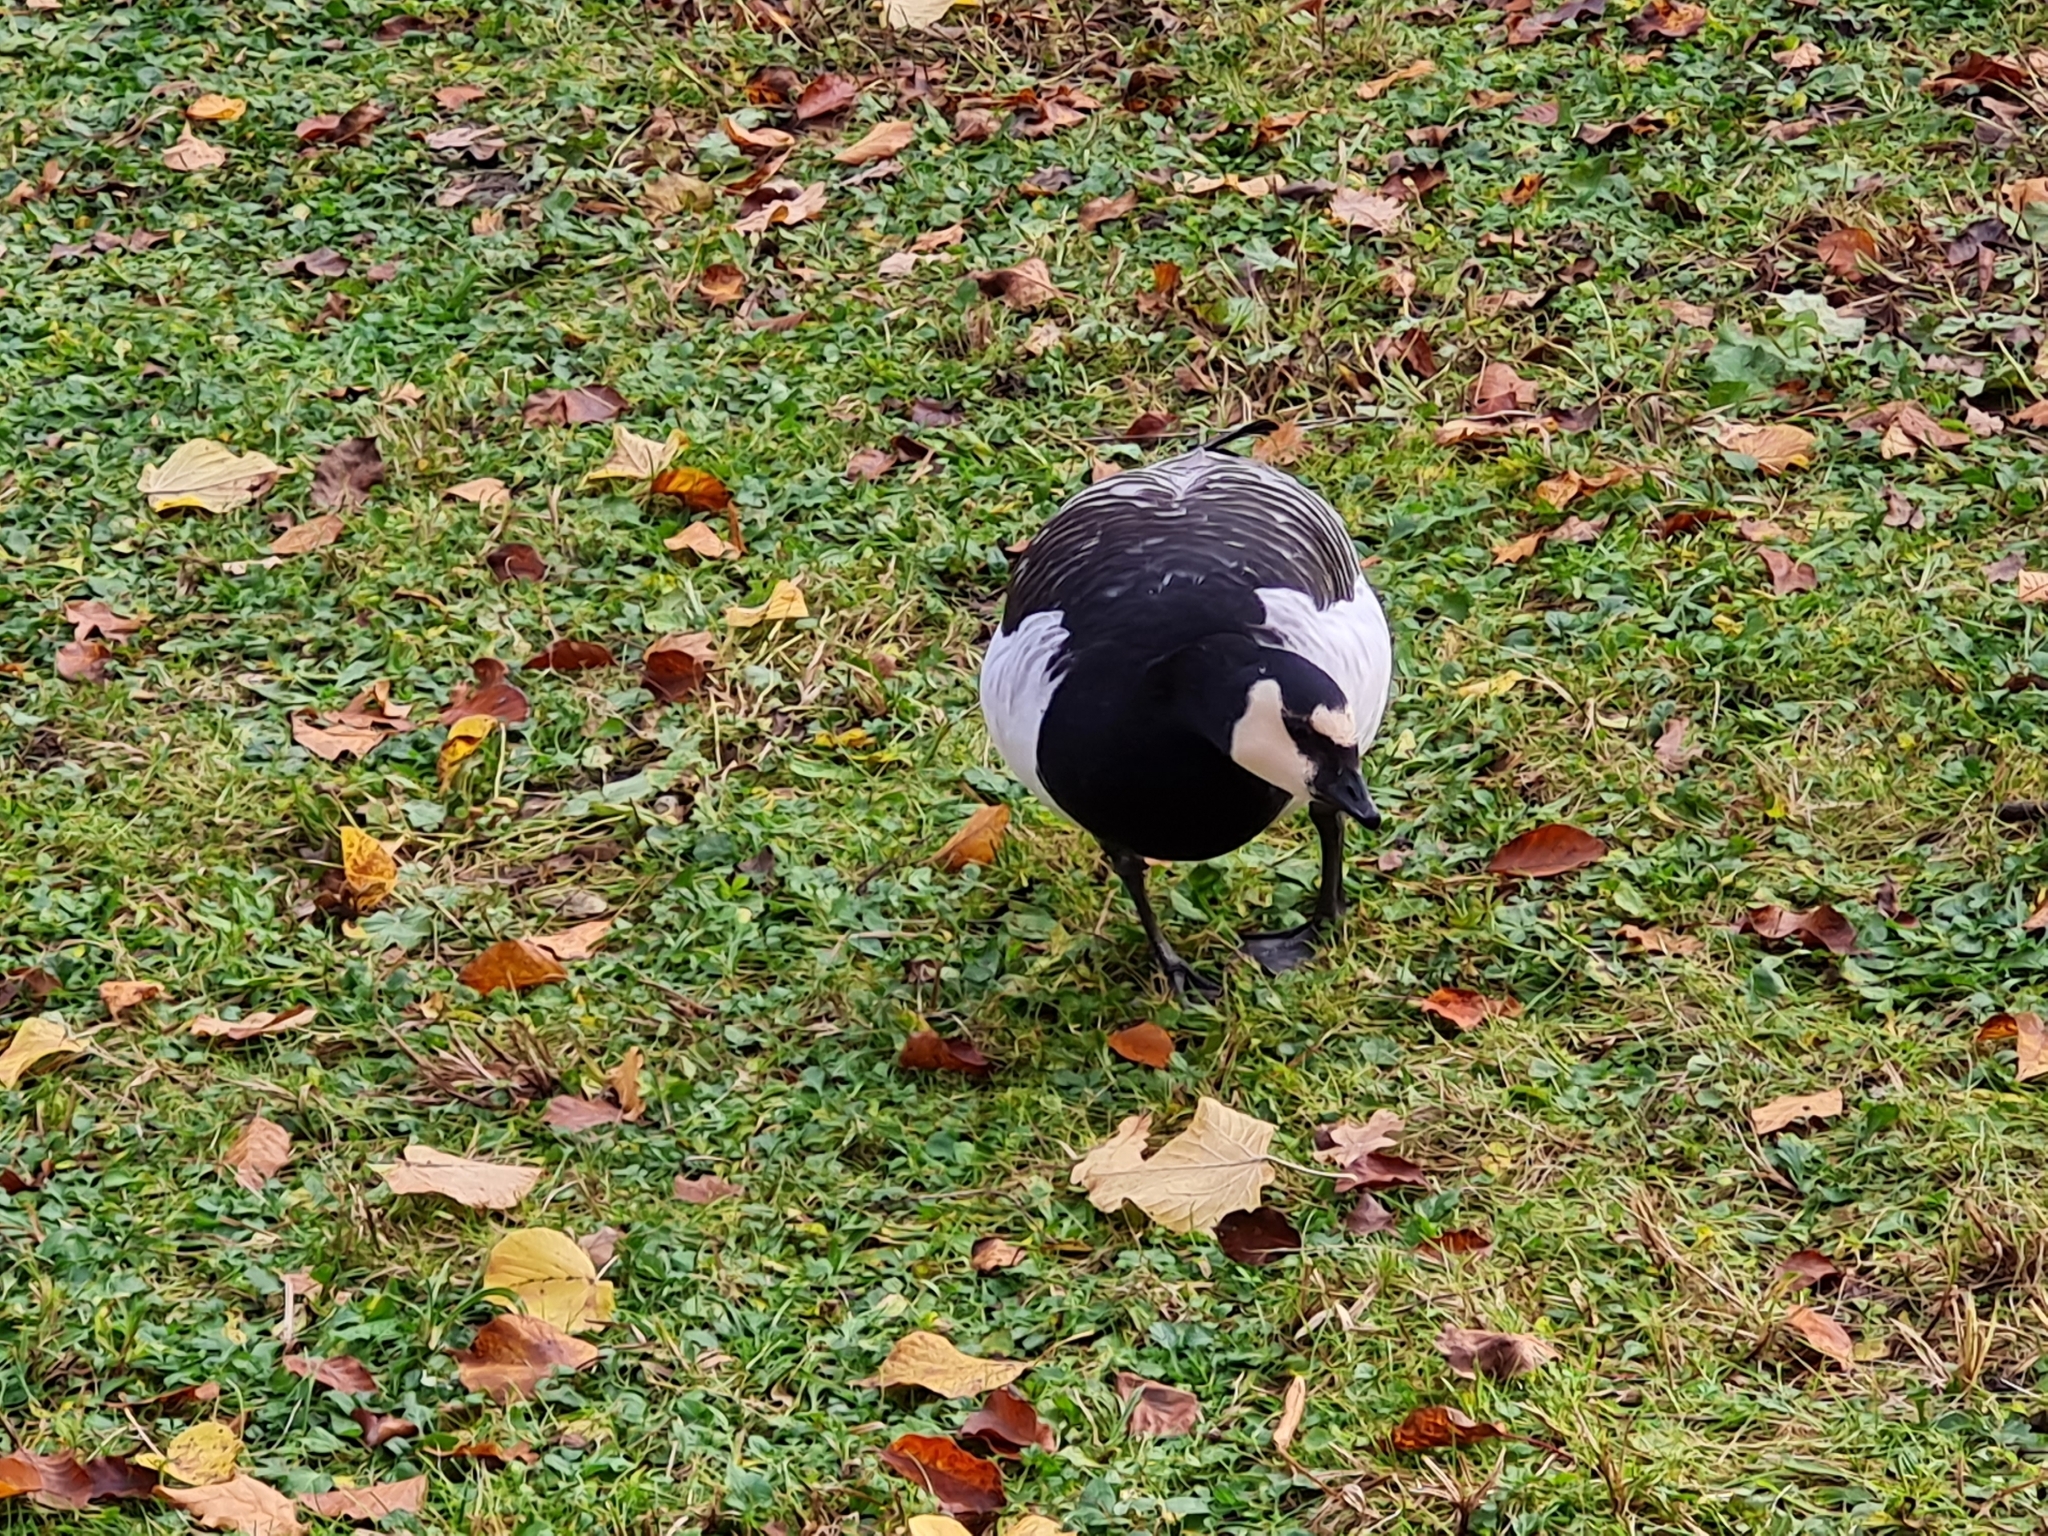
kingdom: Animalia
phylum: Chordata
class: Aves
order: Anseriformes
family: Anatidae
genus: Branta
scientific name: Branta leucopsis
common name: Barnacle goose
